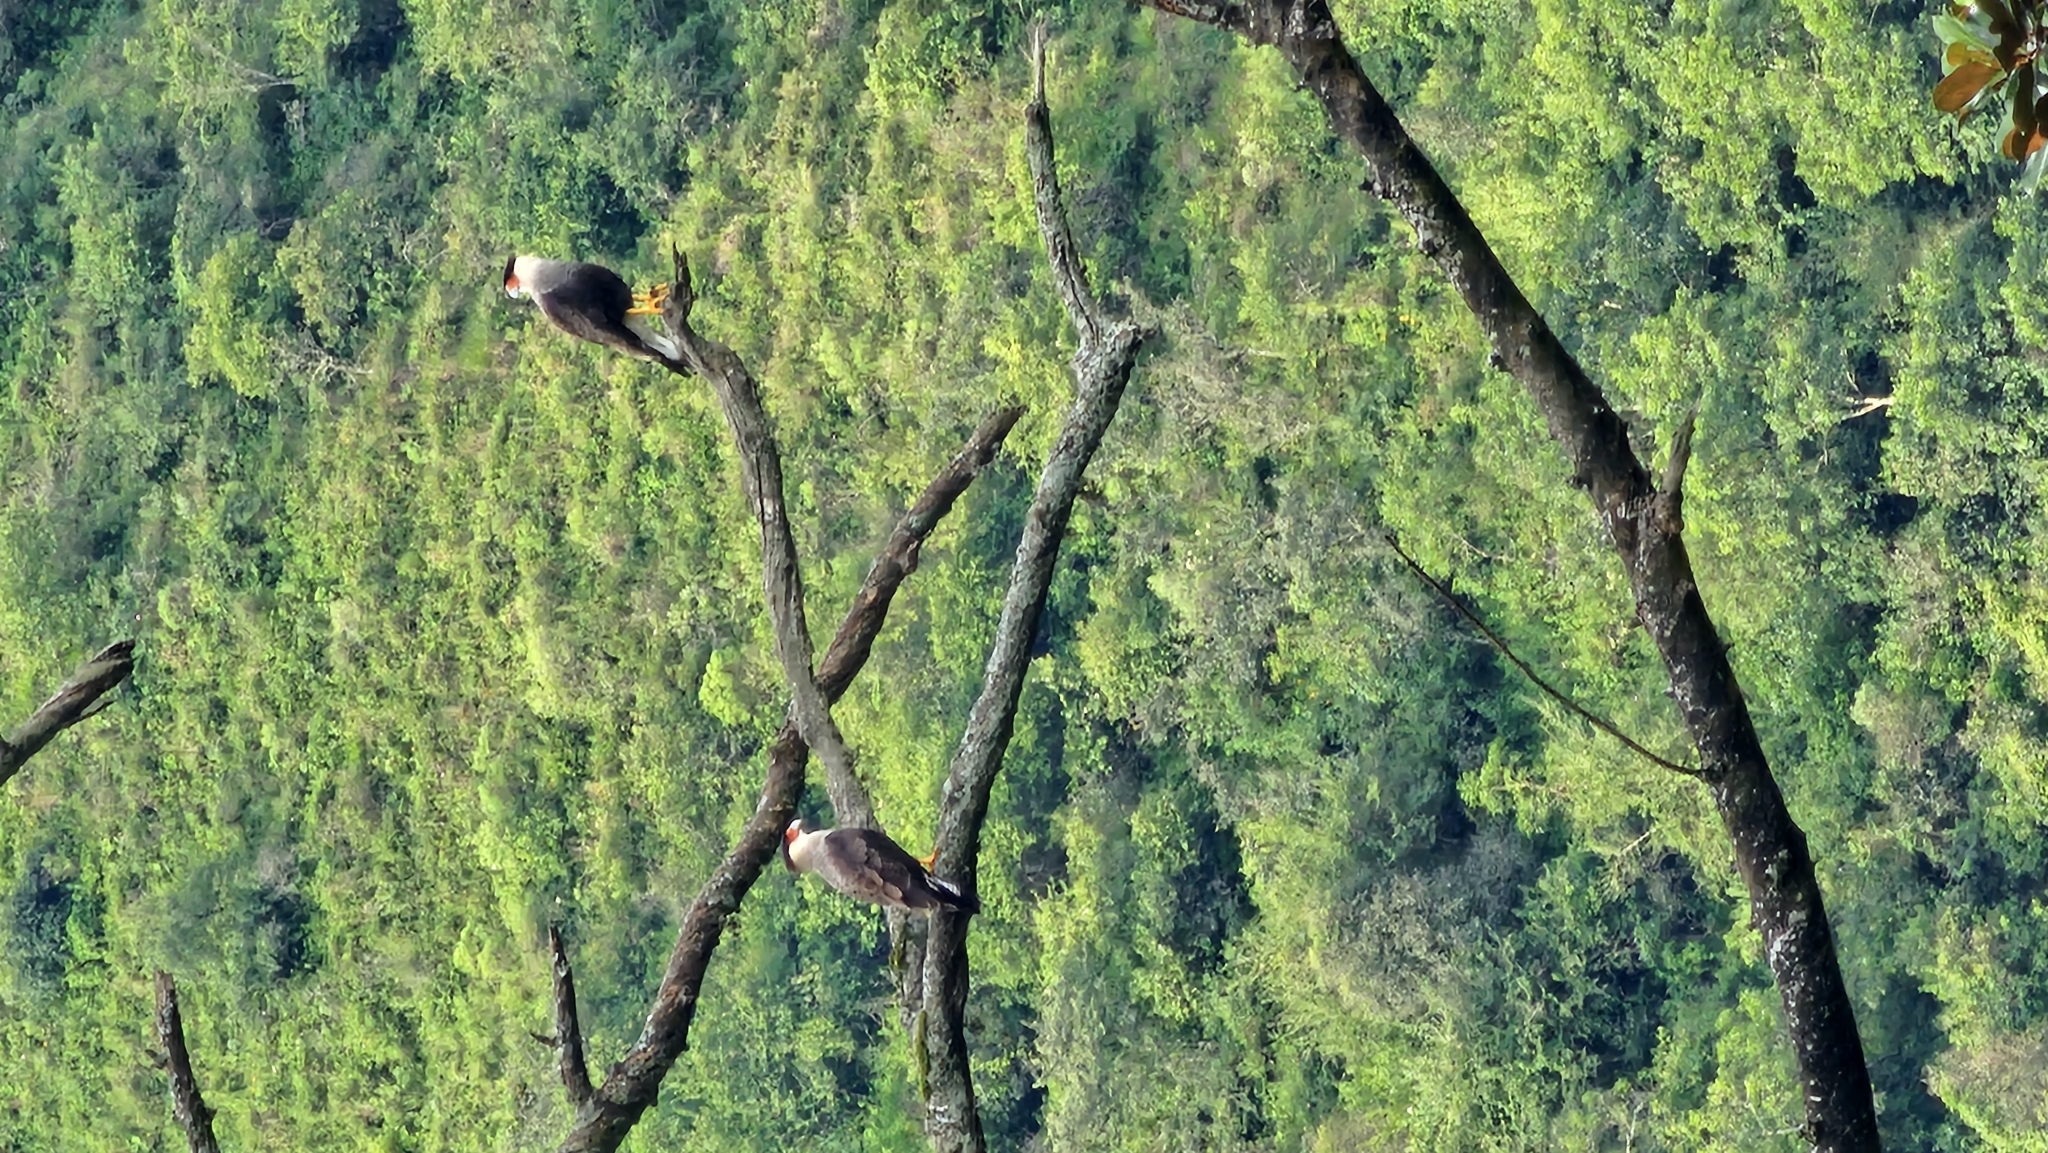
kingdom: Animalia
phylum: Chordata
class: Aves
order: Falconiformes
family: Falconidae
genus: Caracara
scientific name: Caracara plancus
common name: Southern caracara
